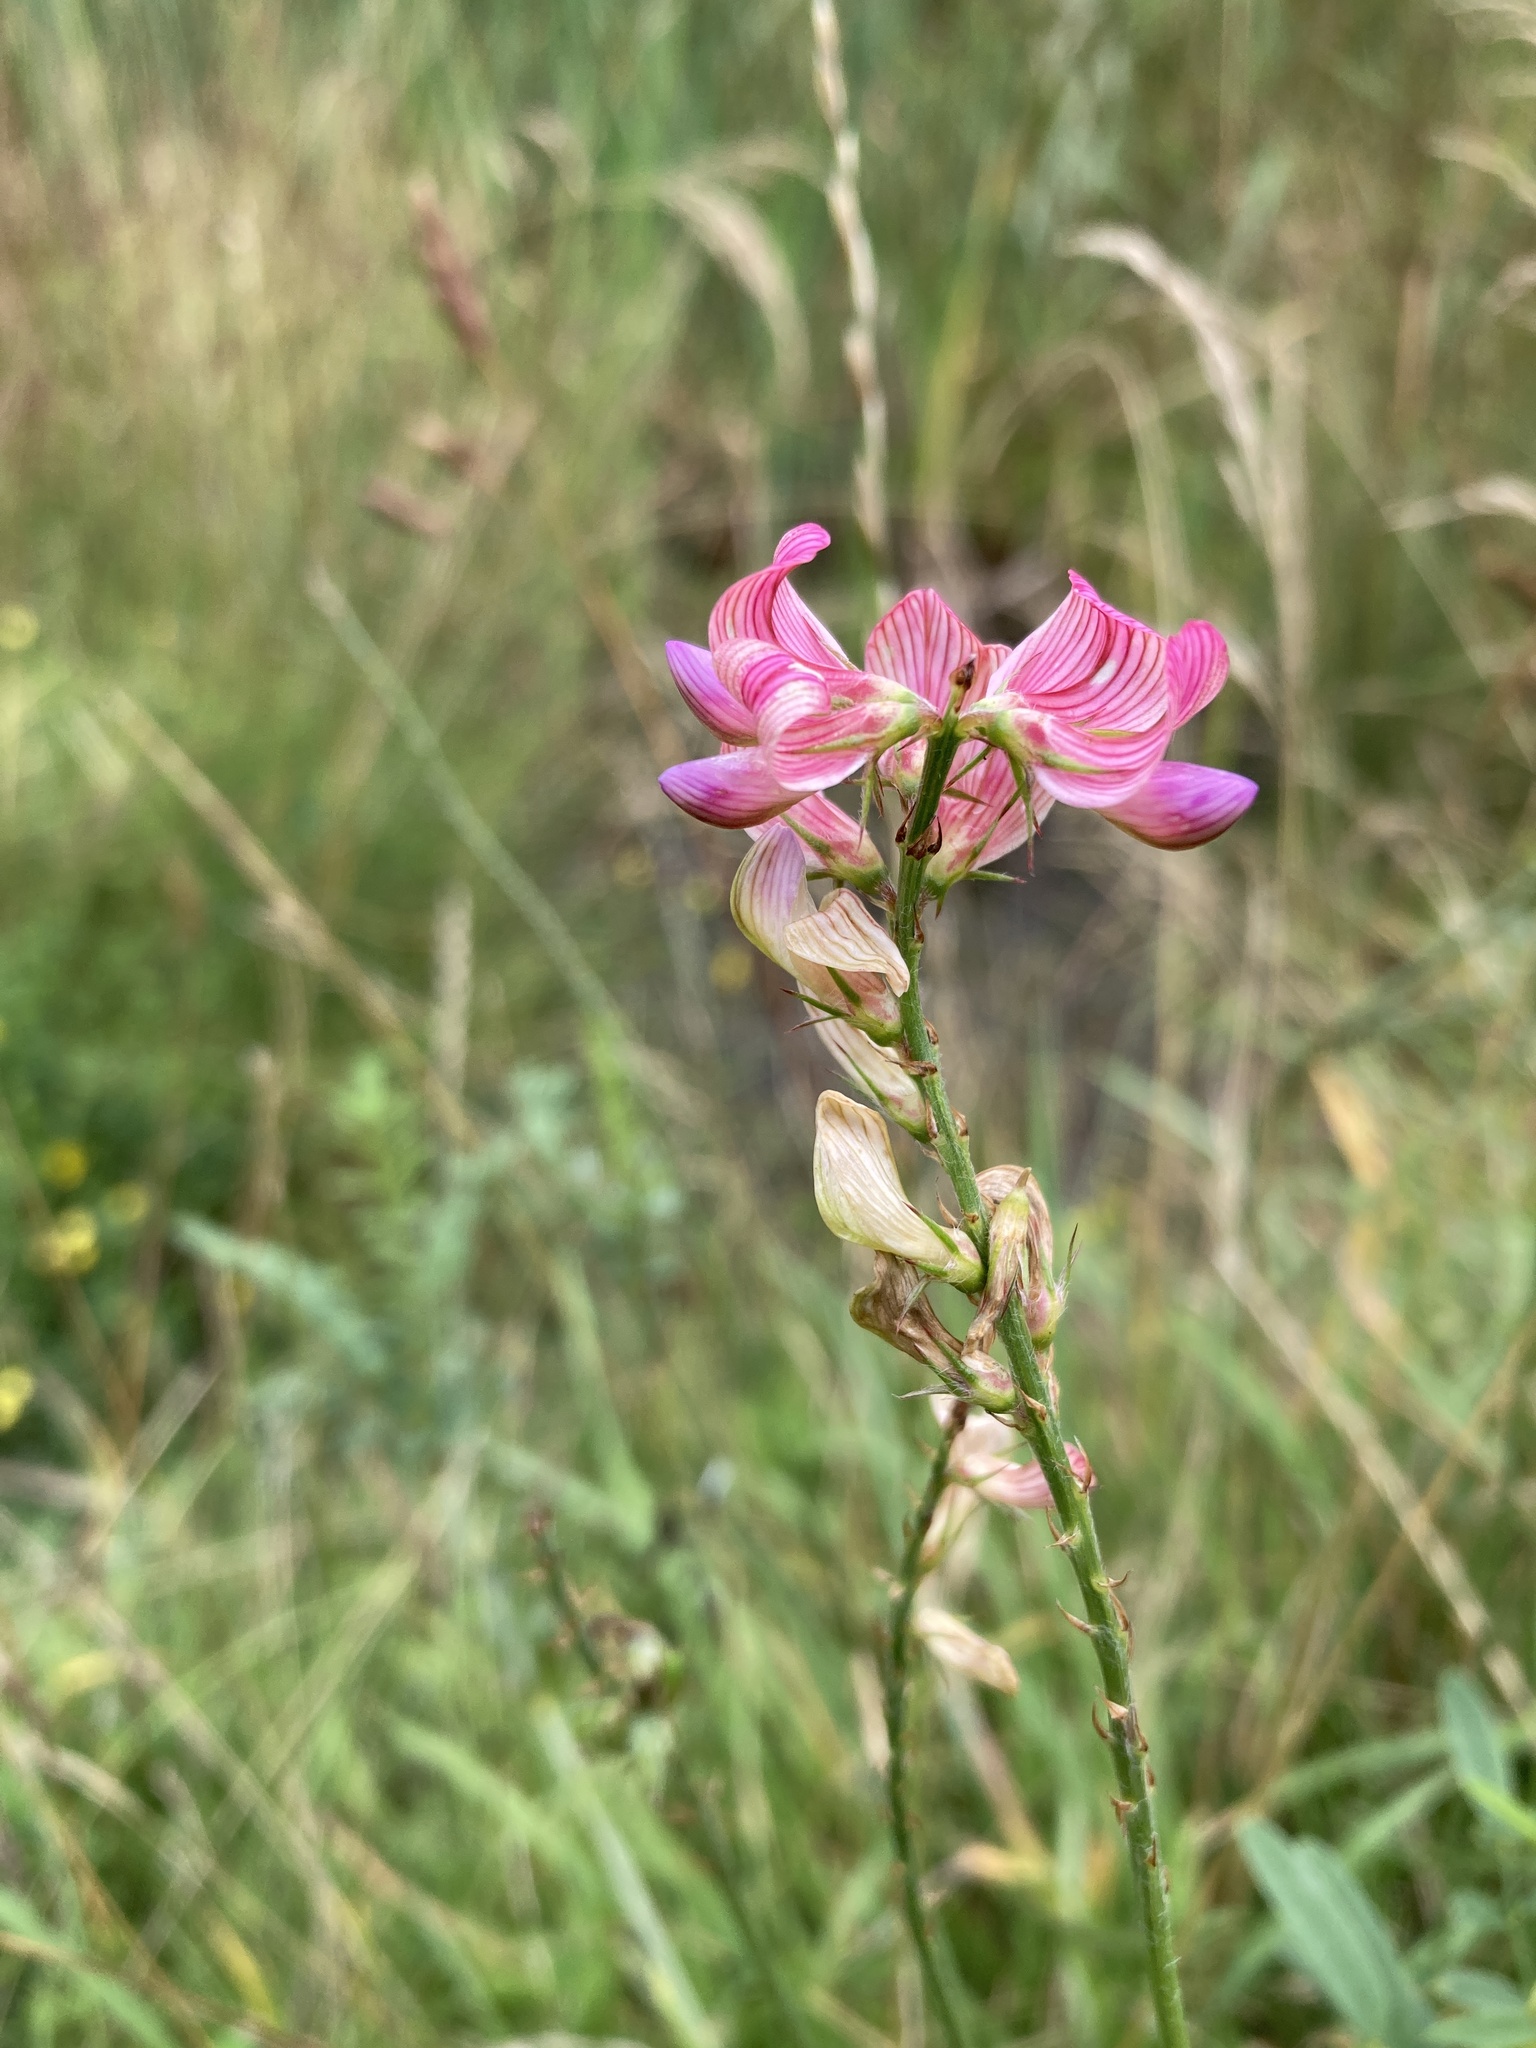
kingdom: Plantae
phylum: Tracheophyta
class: Magnoliopsida
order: Fabales
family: Fabaceae
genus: Onobrychis
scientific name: Onobrychis viciifolia
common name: Sainfoin
